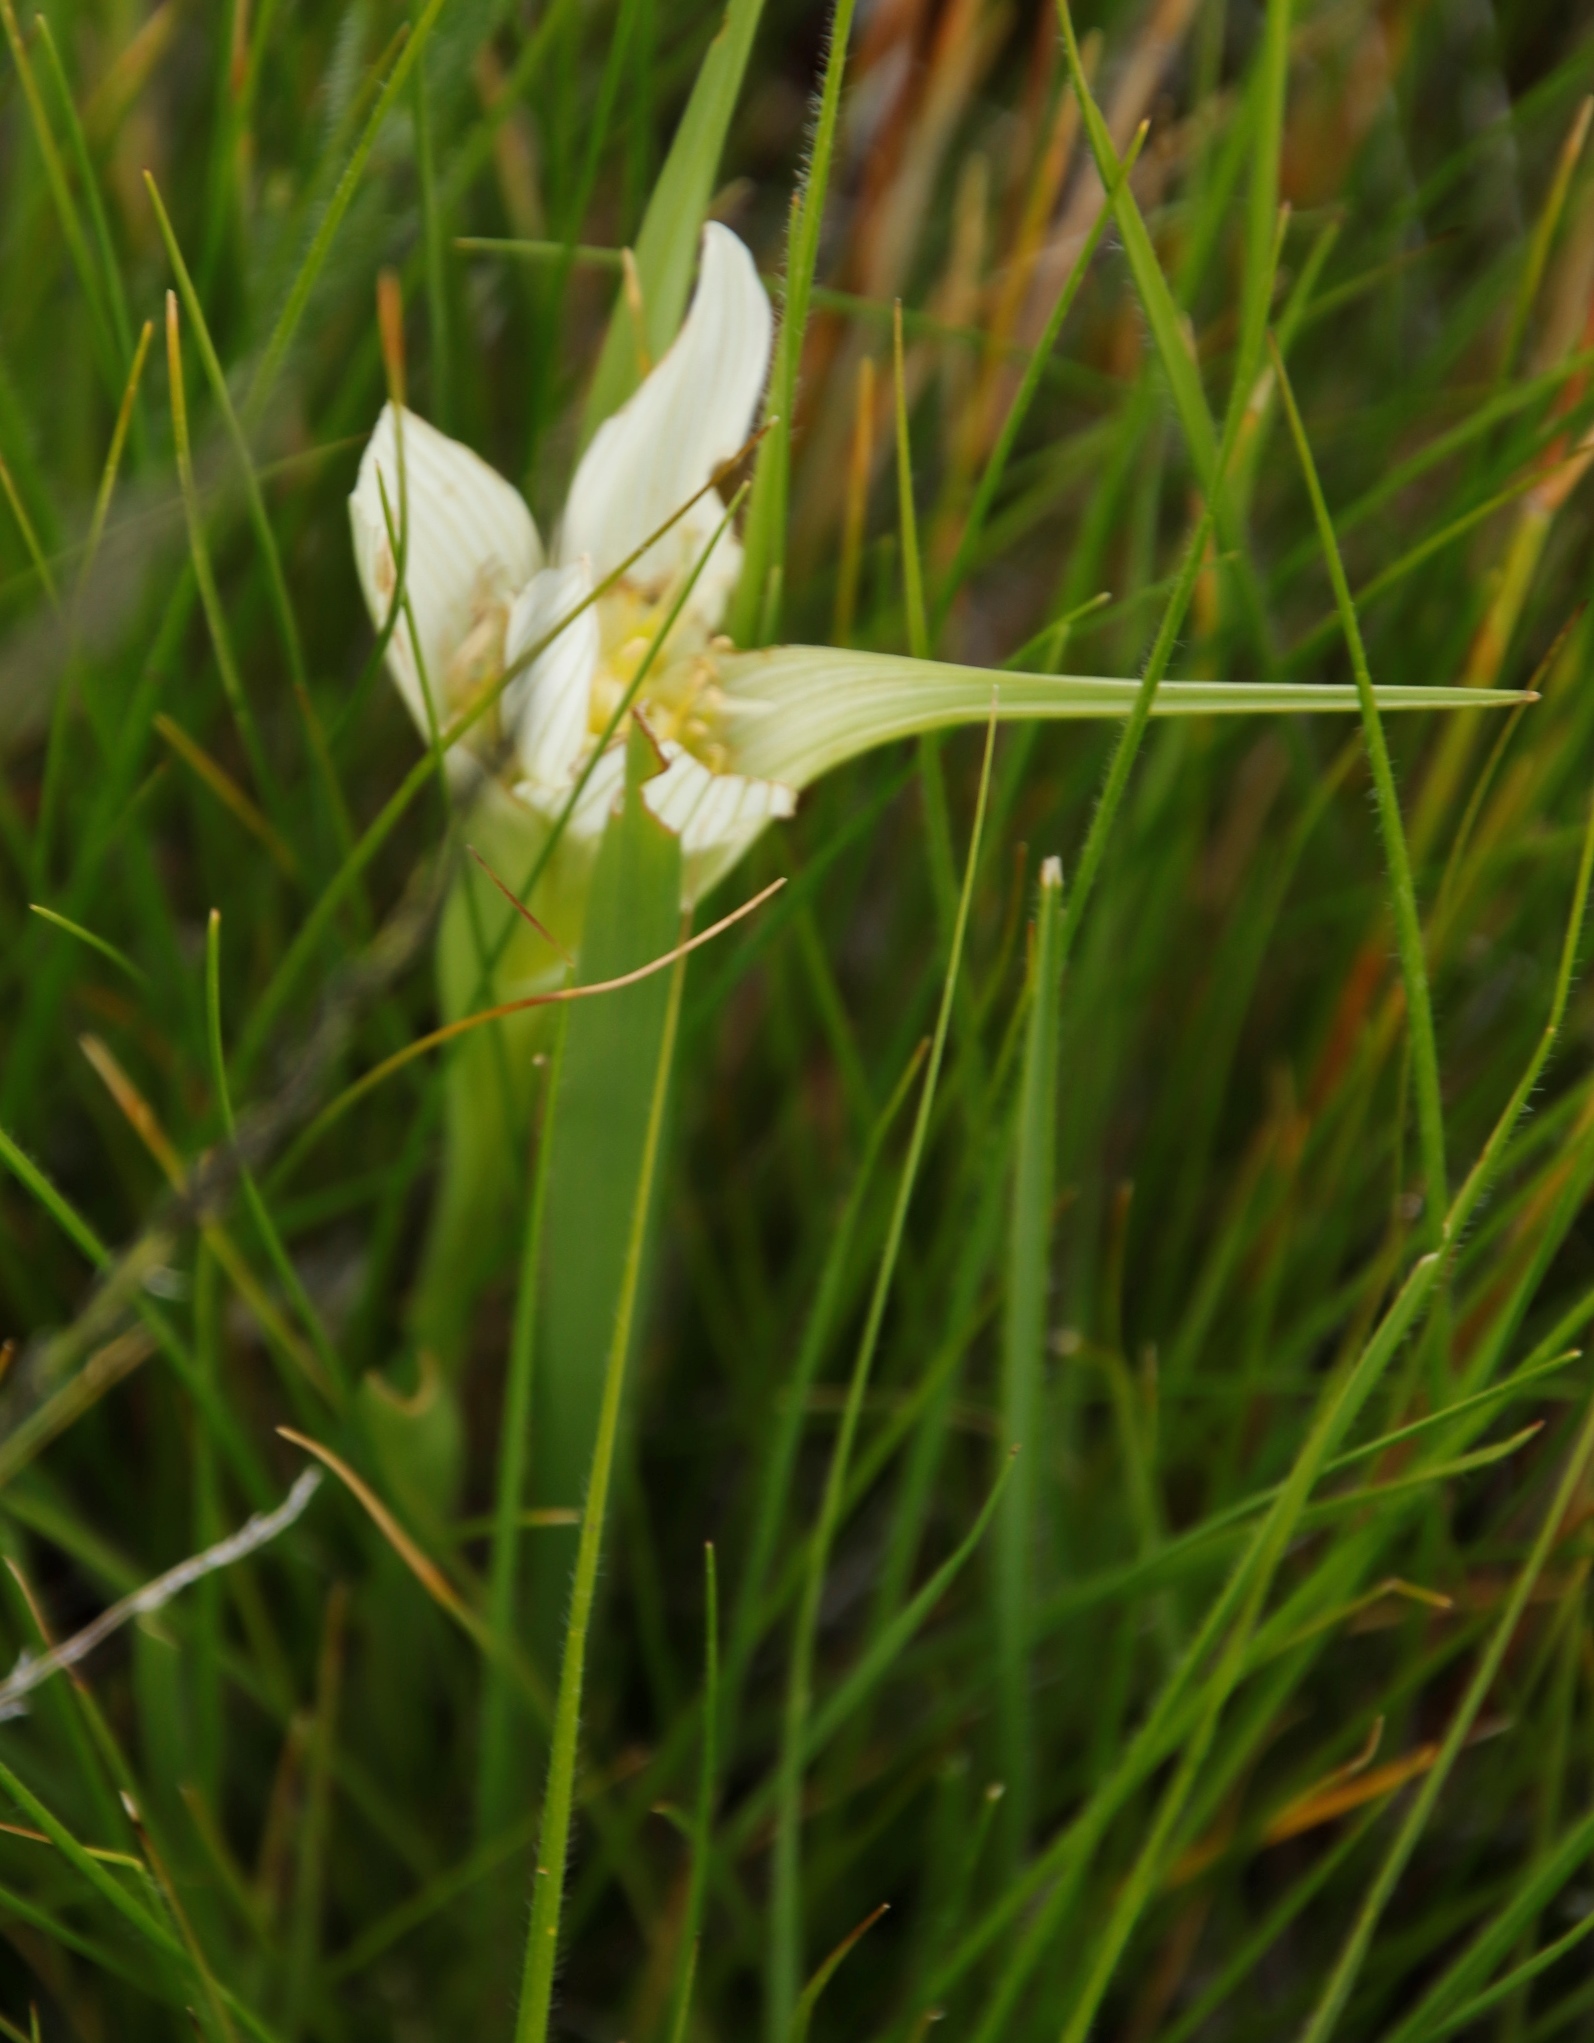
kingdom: Plantae
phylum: Tracheophyta
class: Liliopsida
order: Liliales
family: Colchicaceae
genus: Colchicum
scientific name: Colchicum striatum
